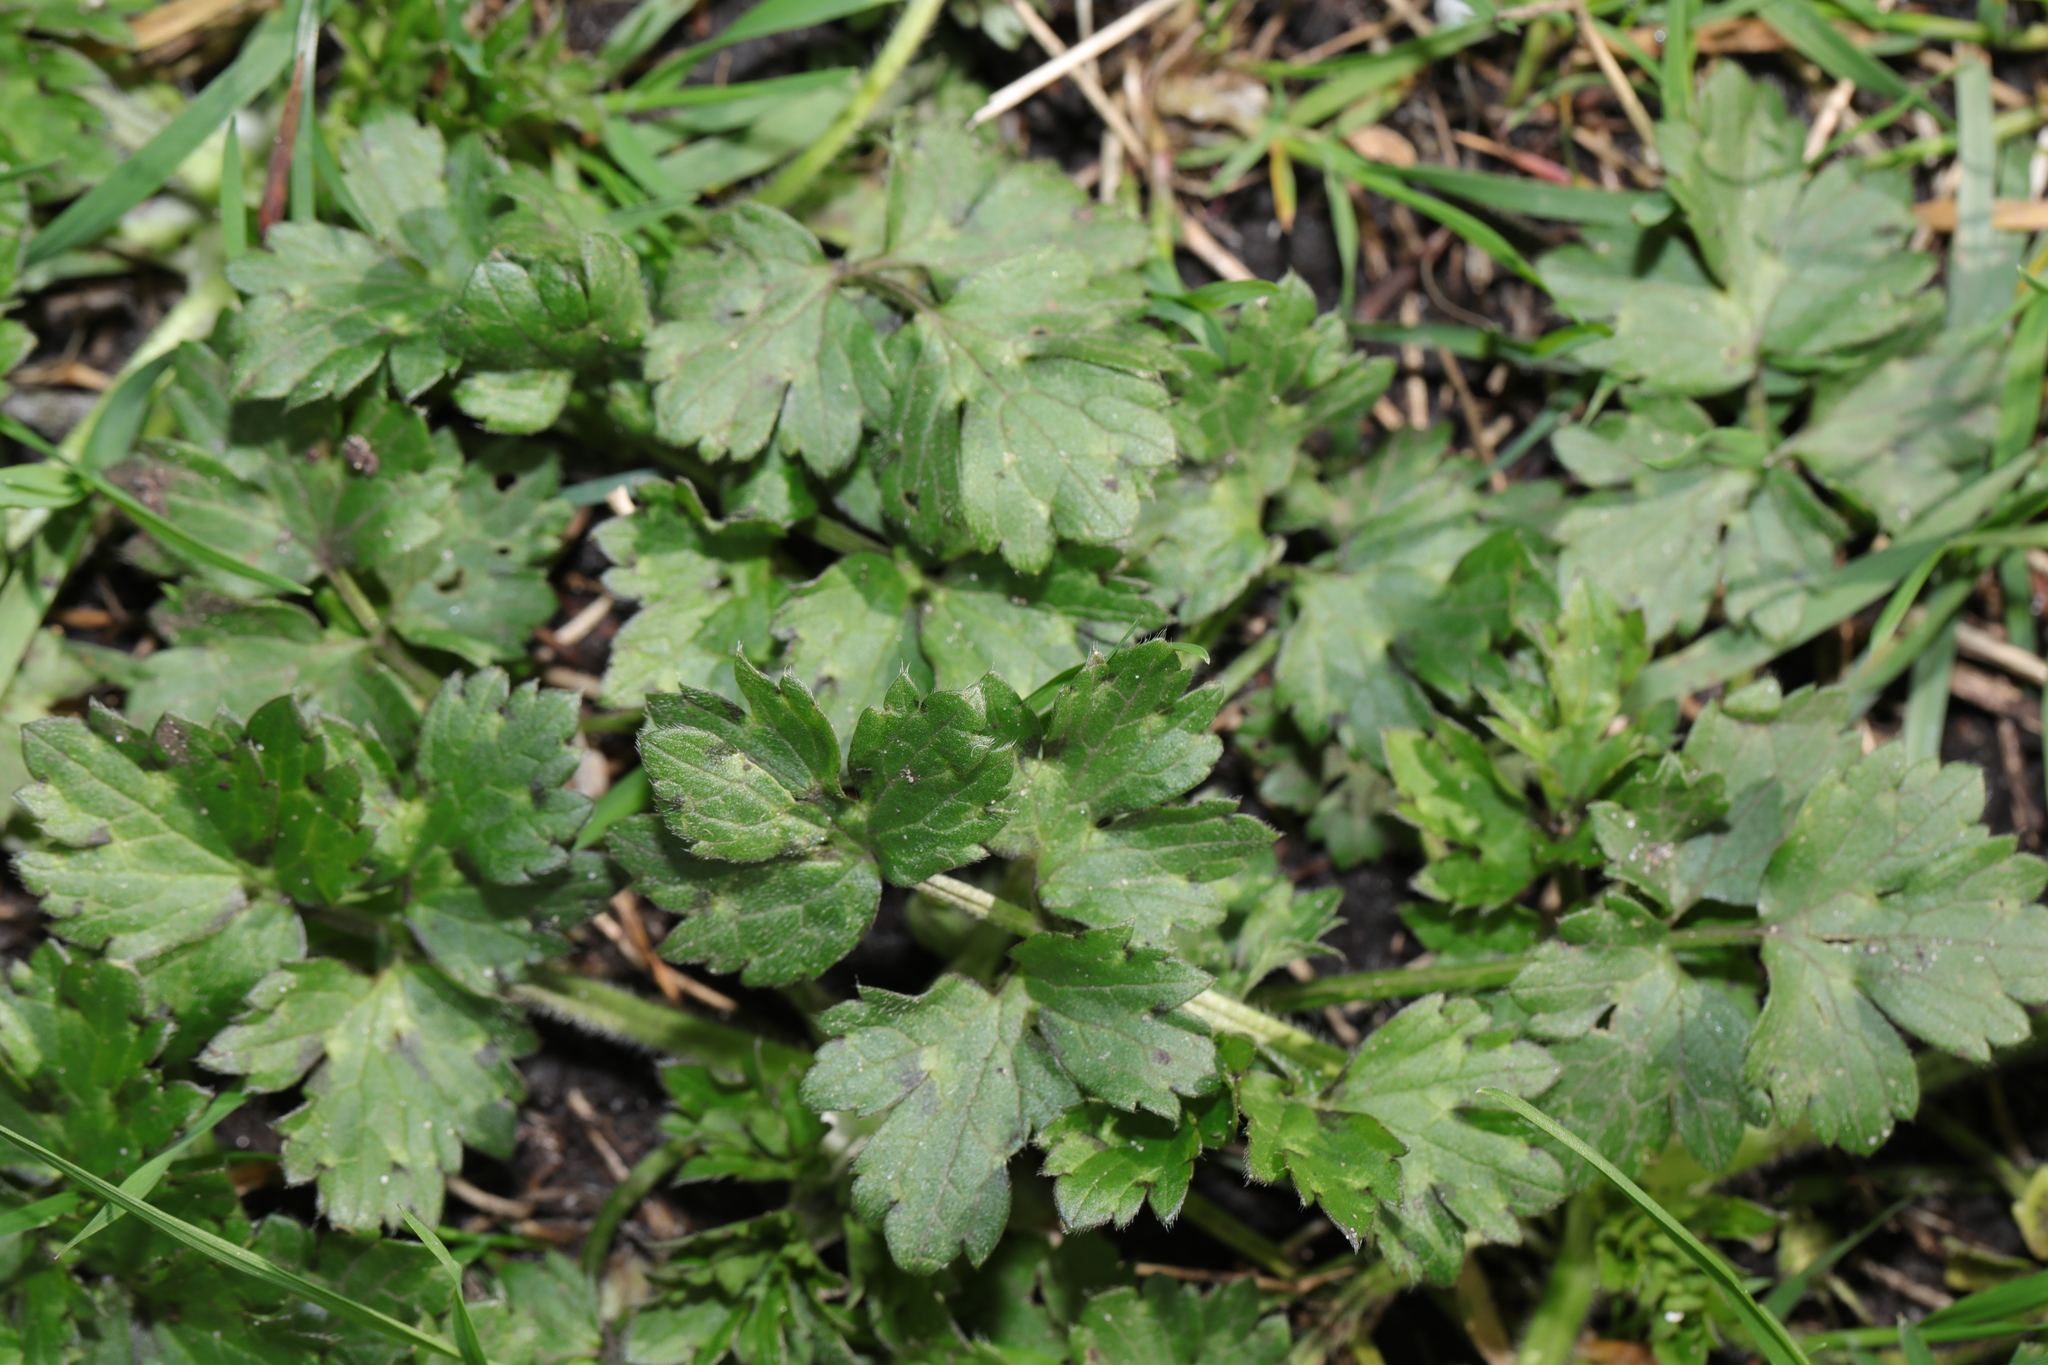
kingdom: Plantae
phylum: Tracheophyta
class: Magnoliopsida
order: Ranunculales
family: Ranunculaceae
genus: Ranunculus
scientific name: Ranunculus repens
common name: Creeping buttercup
